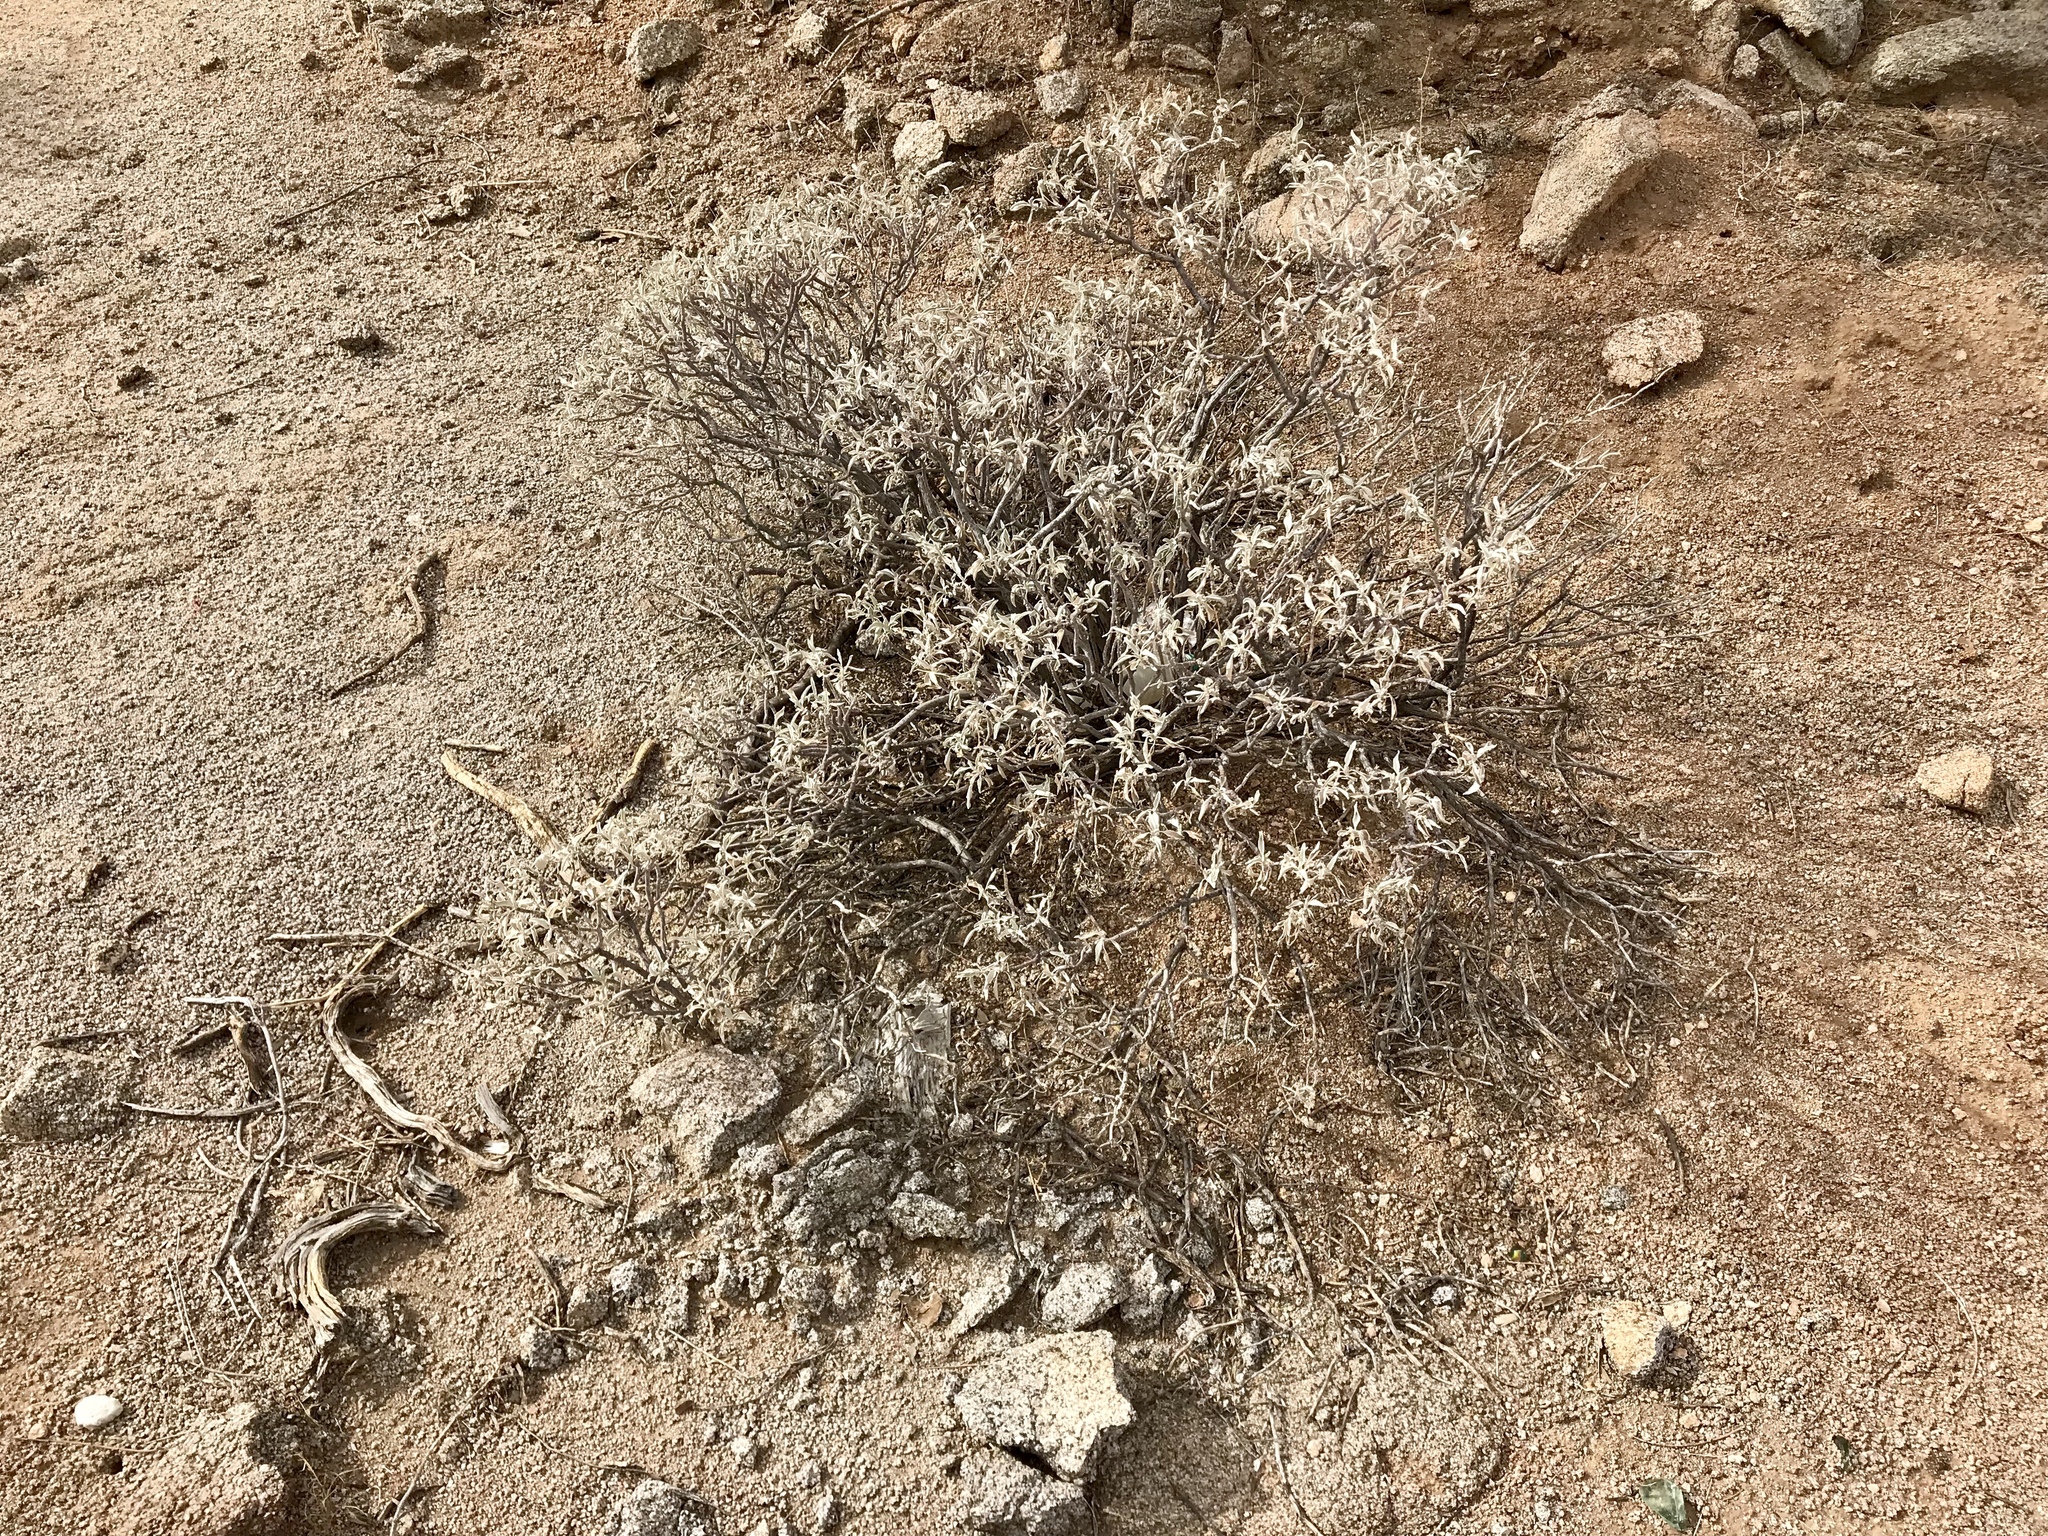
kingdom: Plantae
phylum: Tracheophyta
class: Magnoliopsida
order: Asterales
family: Asteraceae
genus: Ambrosia
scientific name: Ambrosia deltoidea
